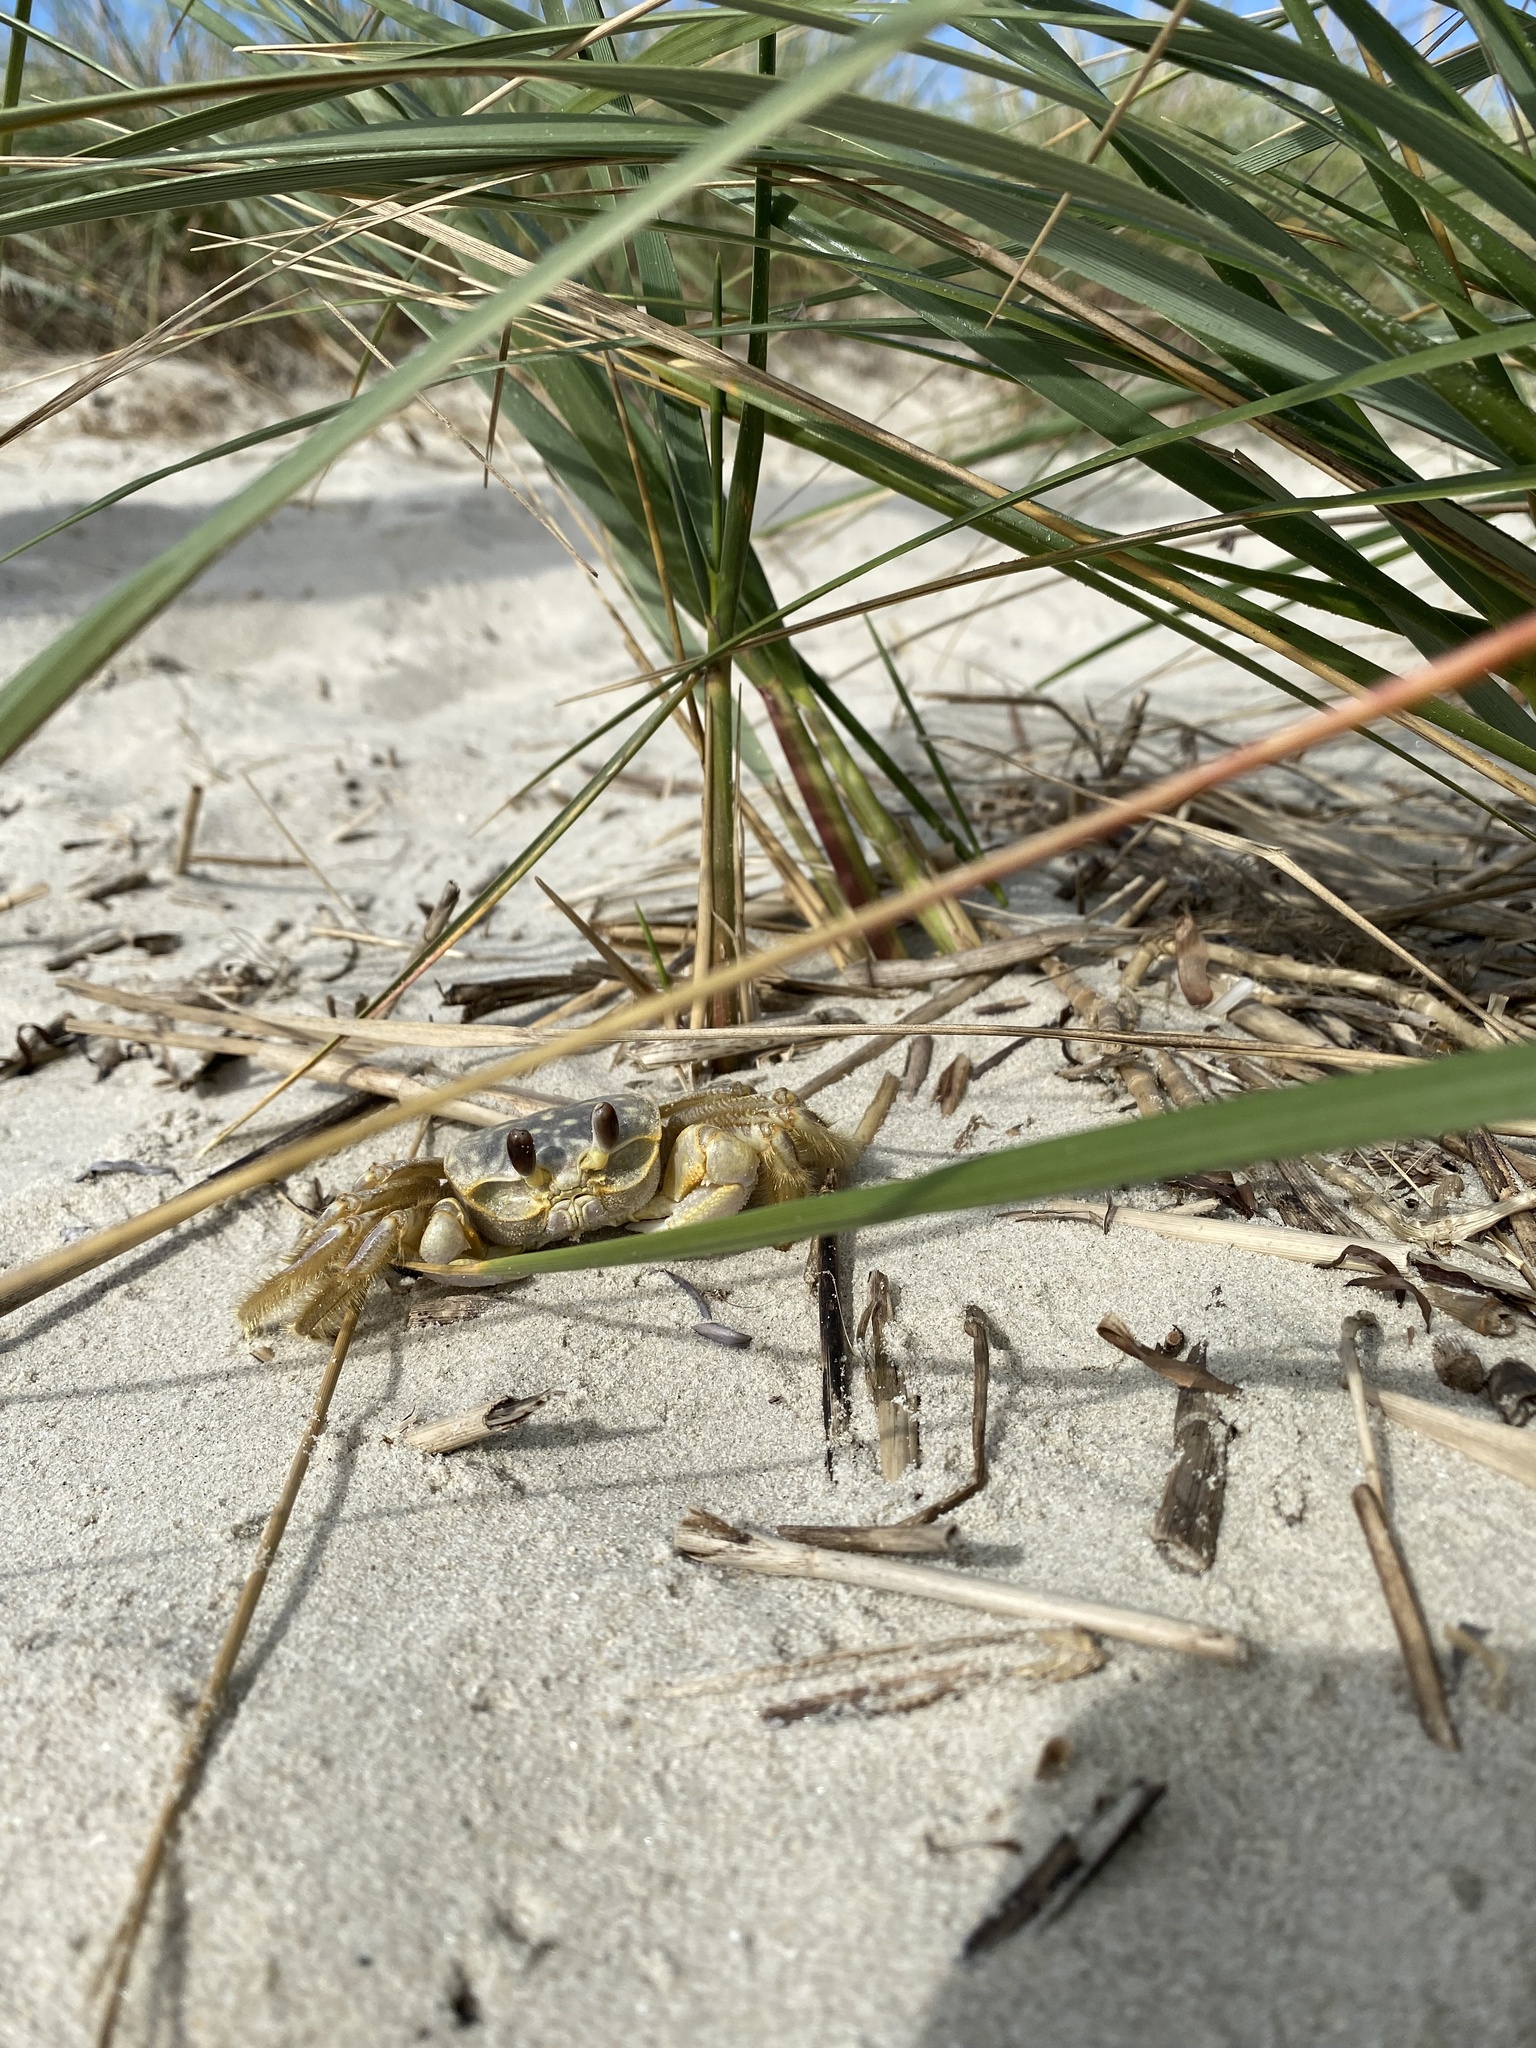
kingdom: Animalia
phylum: Arthropoda
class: Malacostraca
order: Decapoda
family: Ocypodidae
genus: Ocypode
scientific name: Ocypode quadrata
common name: Ghost crab
